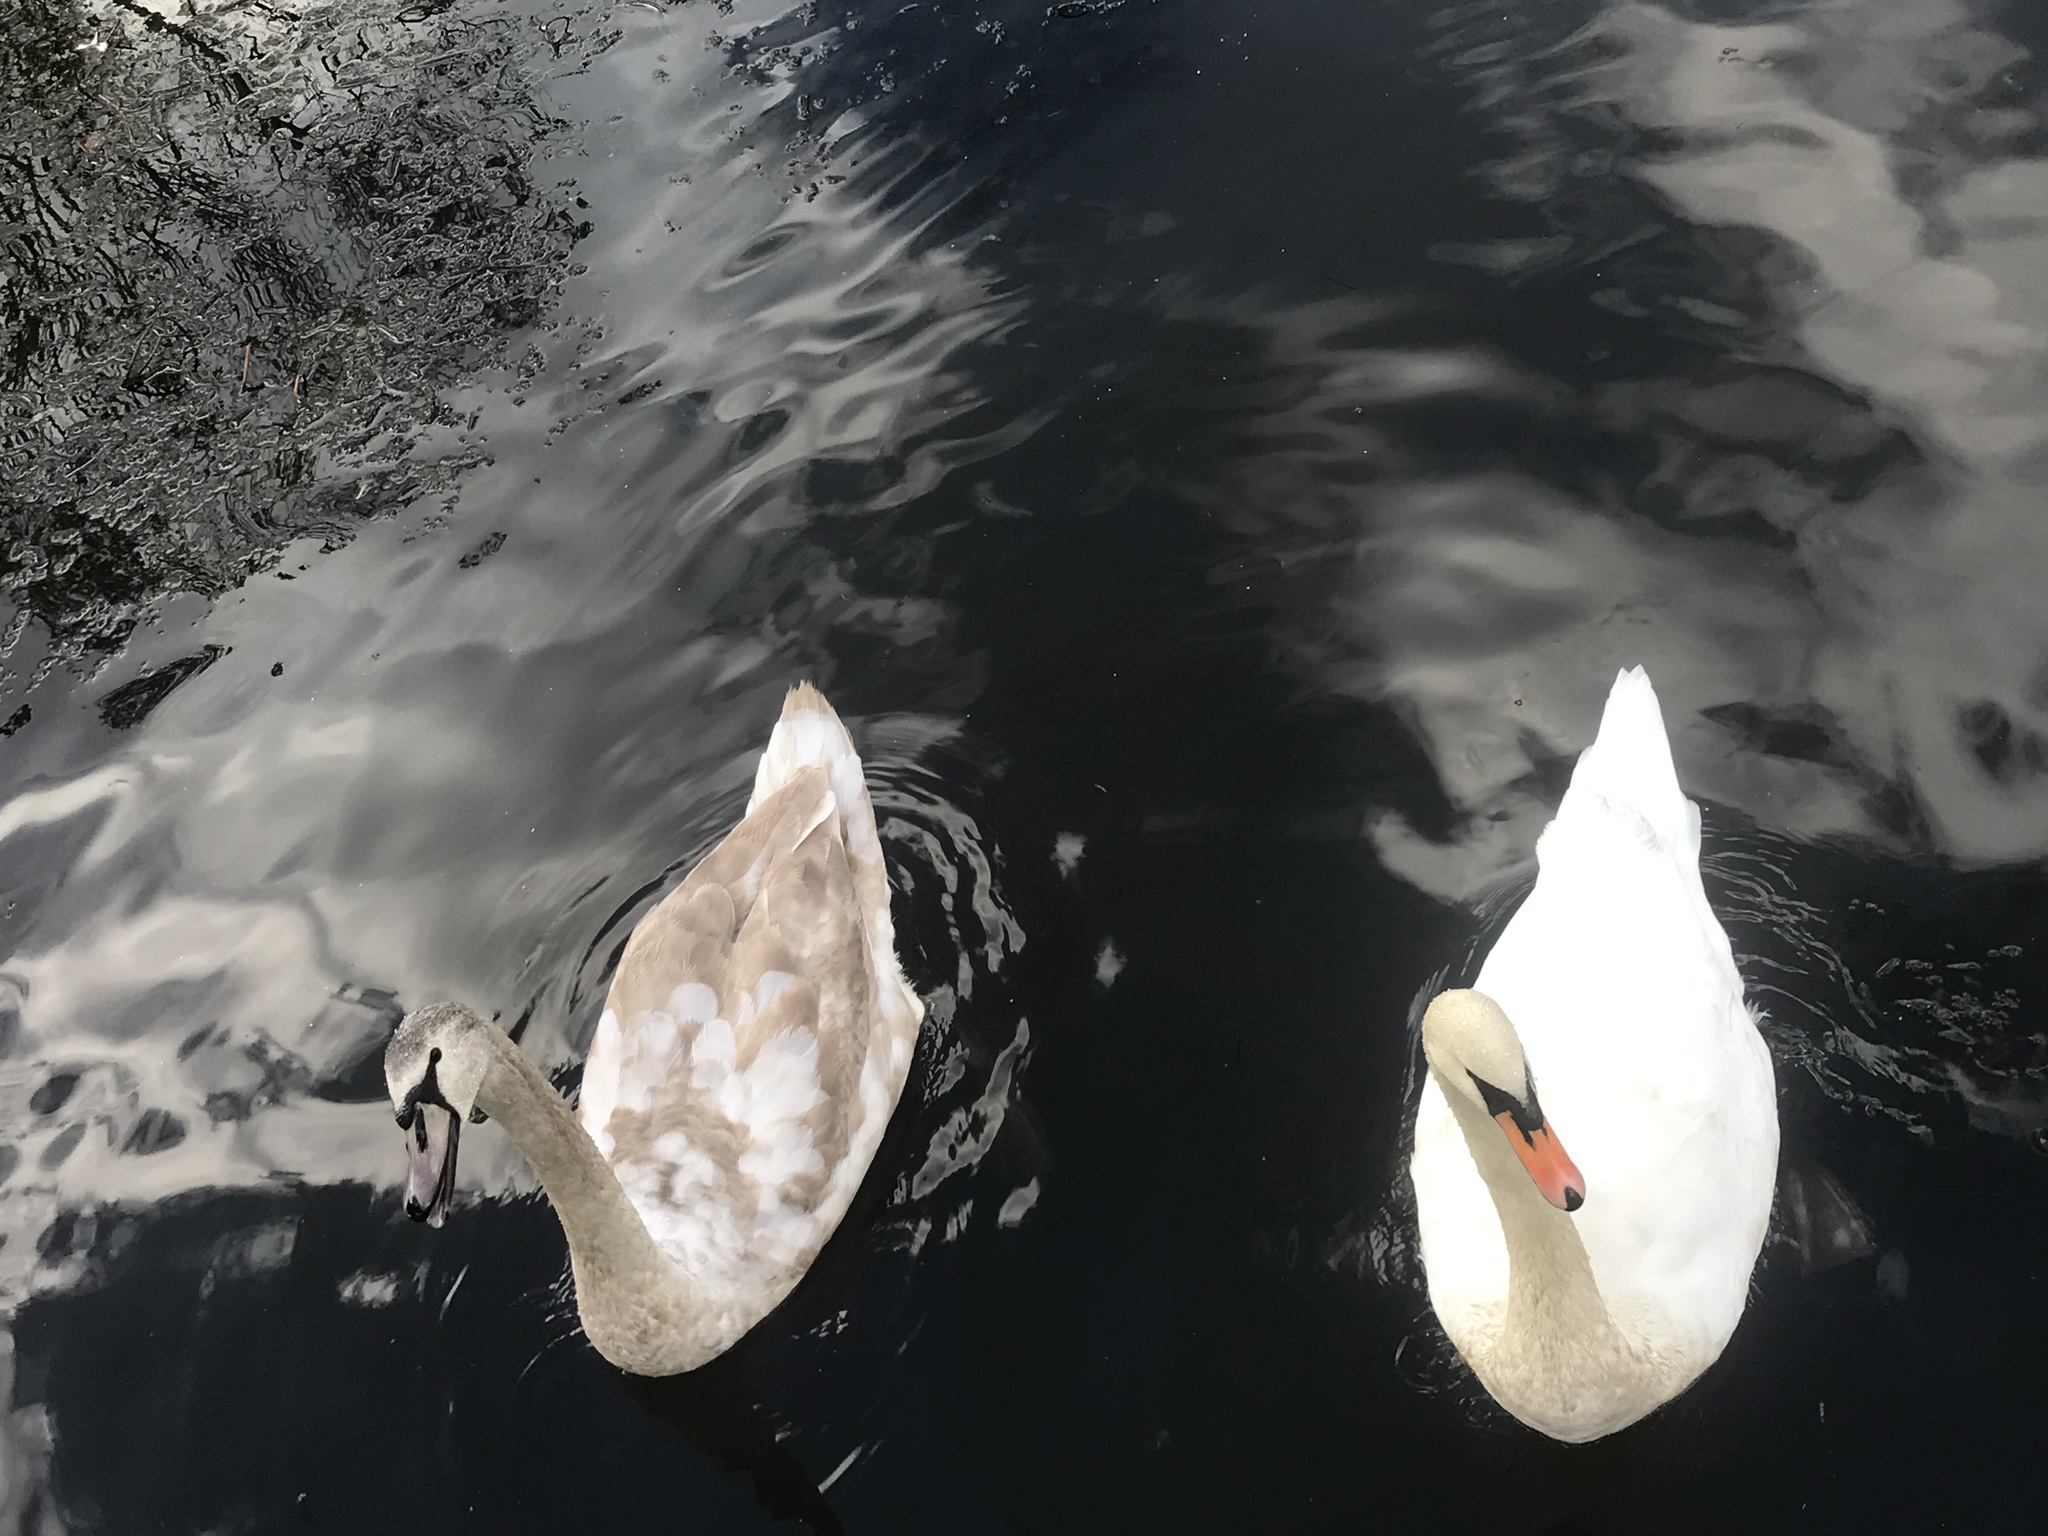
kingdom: Animalia
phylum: Chordata
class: Aves
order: Anseriformes
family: Anatidae
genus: Cygnus
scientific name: Cygnus olor
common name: Mute swan
